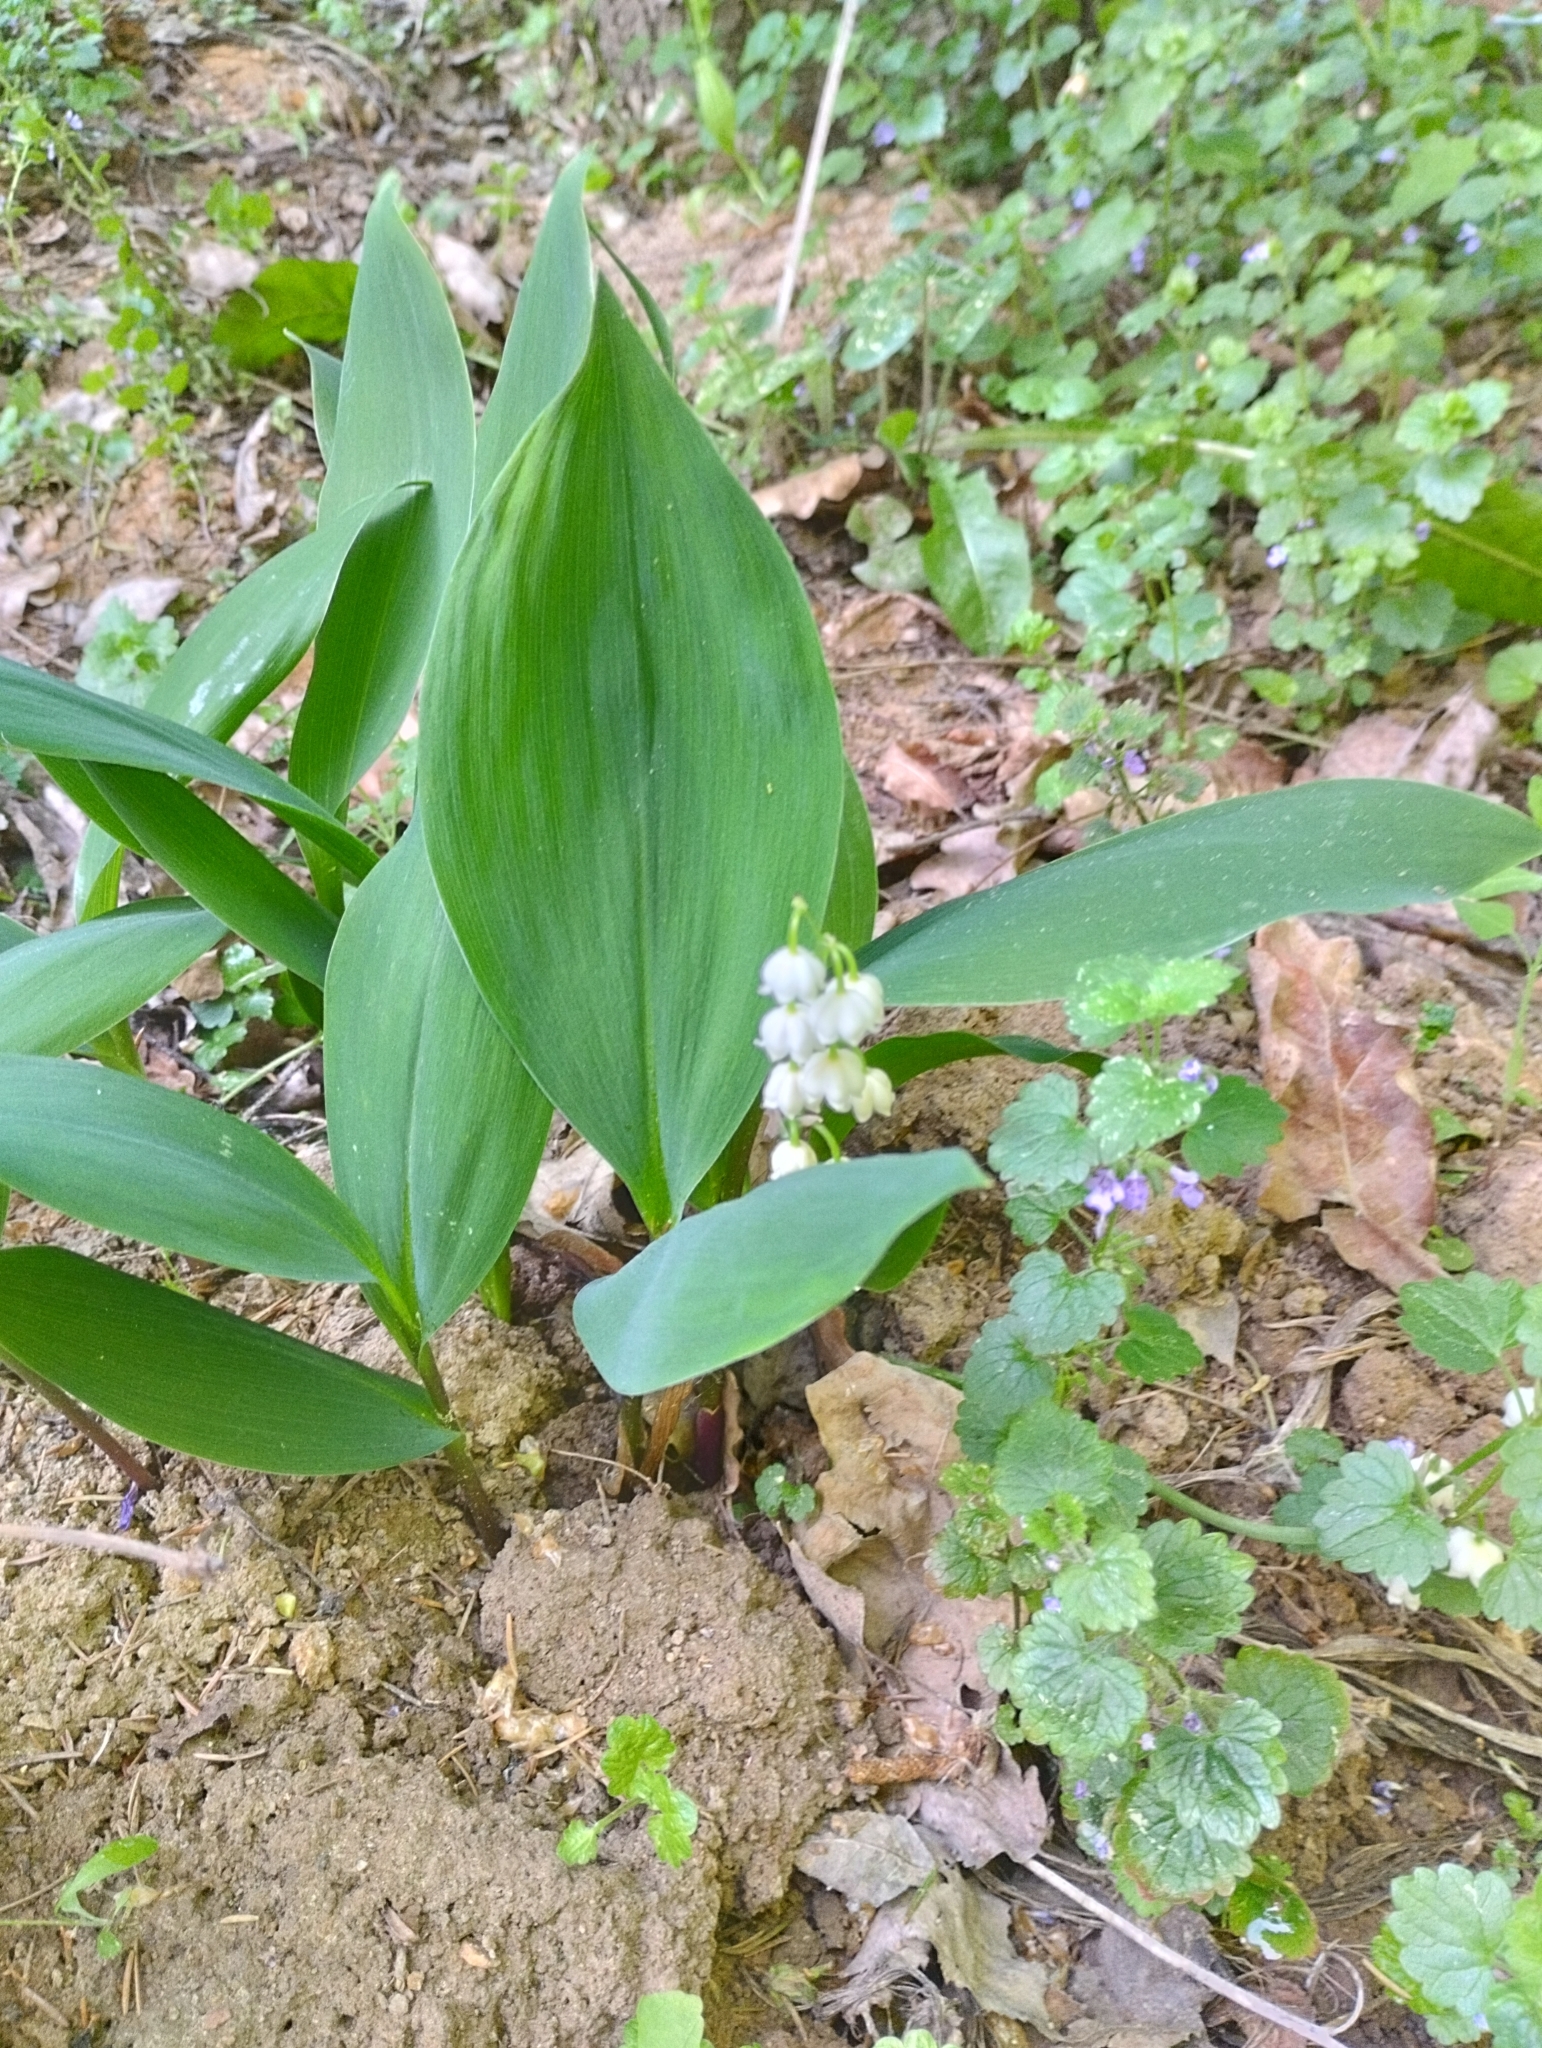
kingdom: Plantae
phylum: Tracheophyta
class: Liliopsida
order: Asparagales
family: Asparagaceae
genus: Convallaria
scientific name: Convallaria majalis
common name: Lily-of-the-valley
